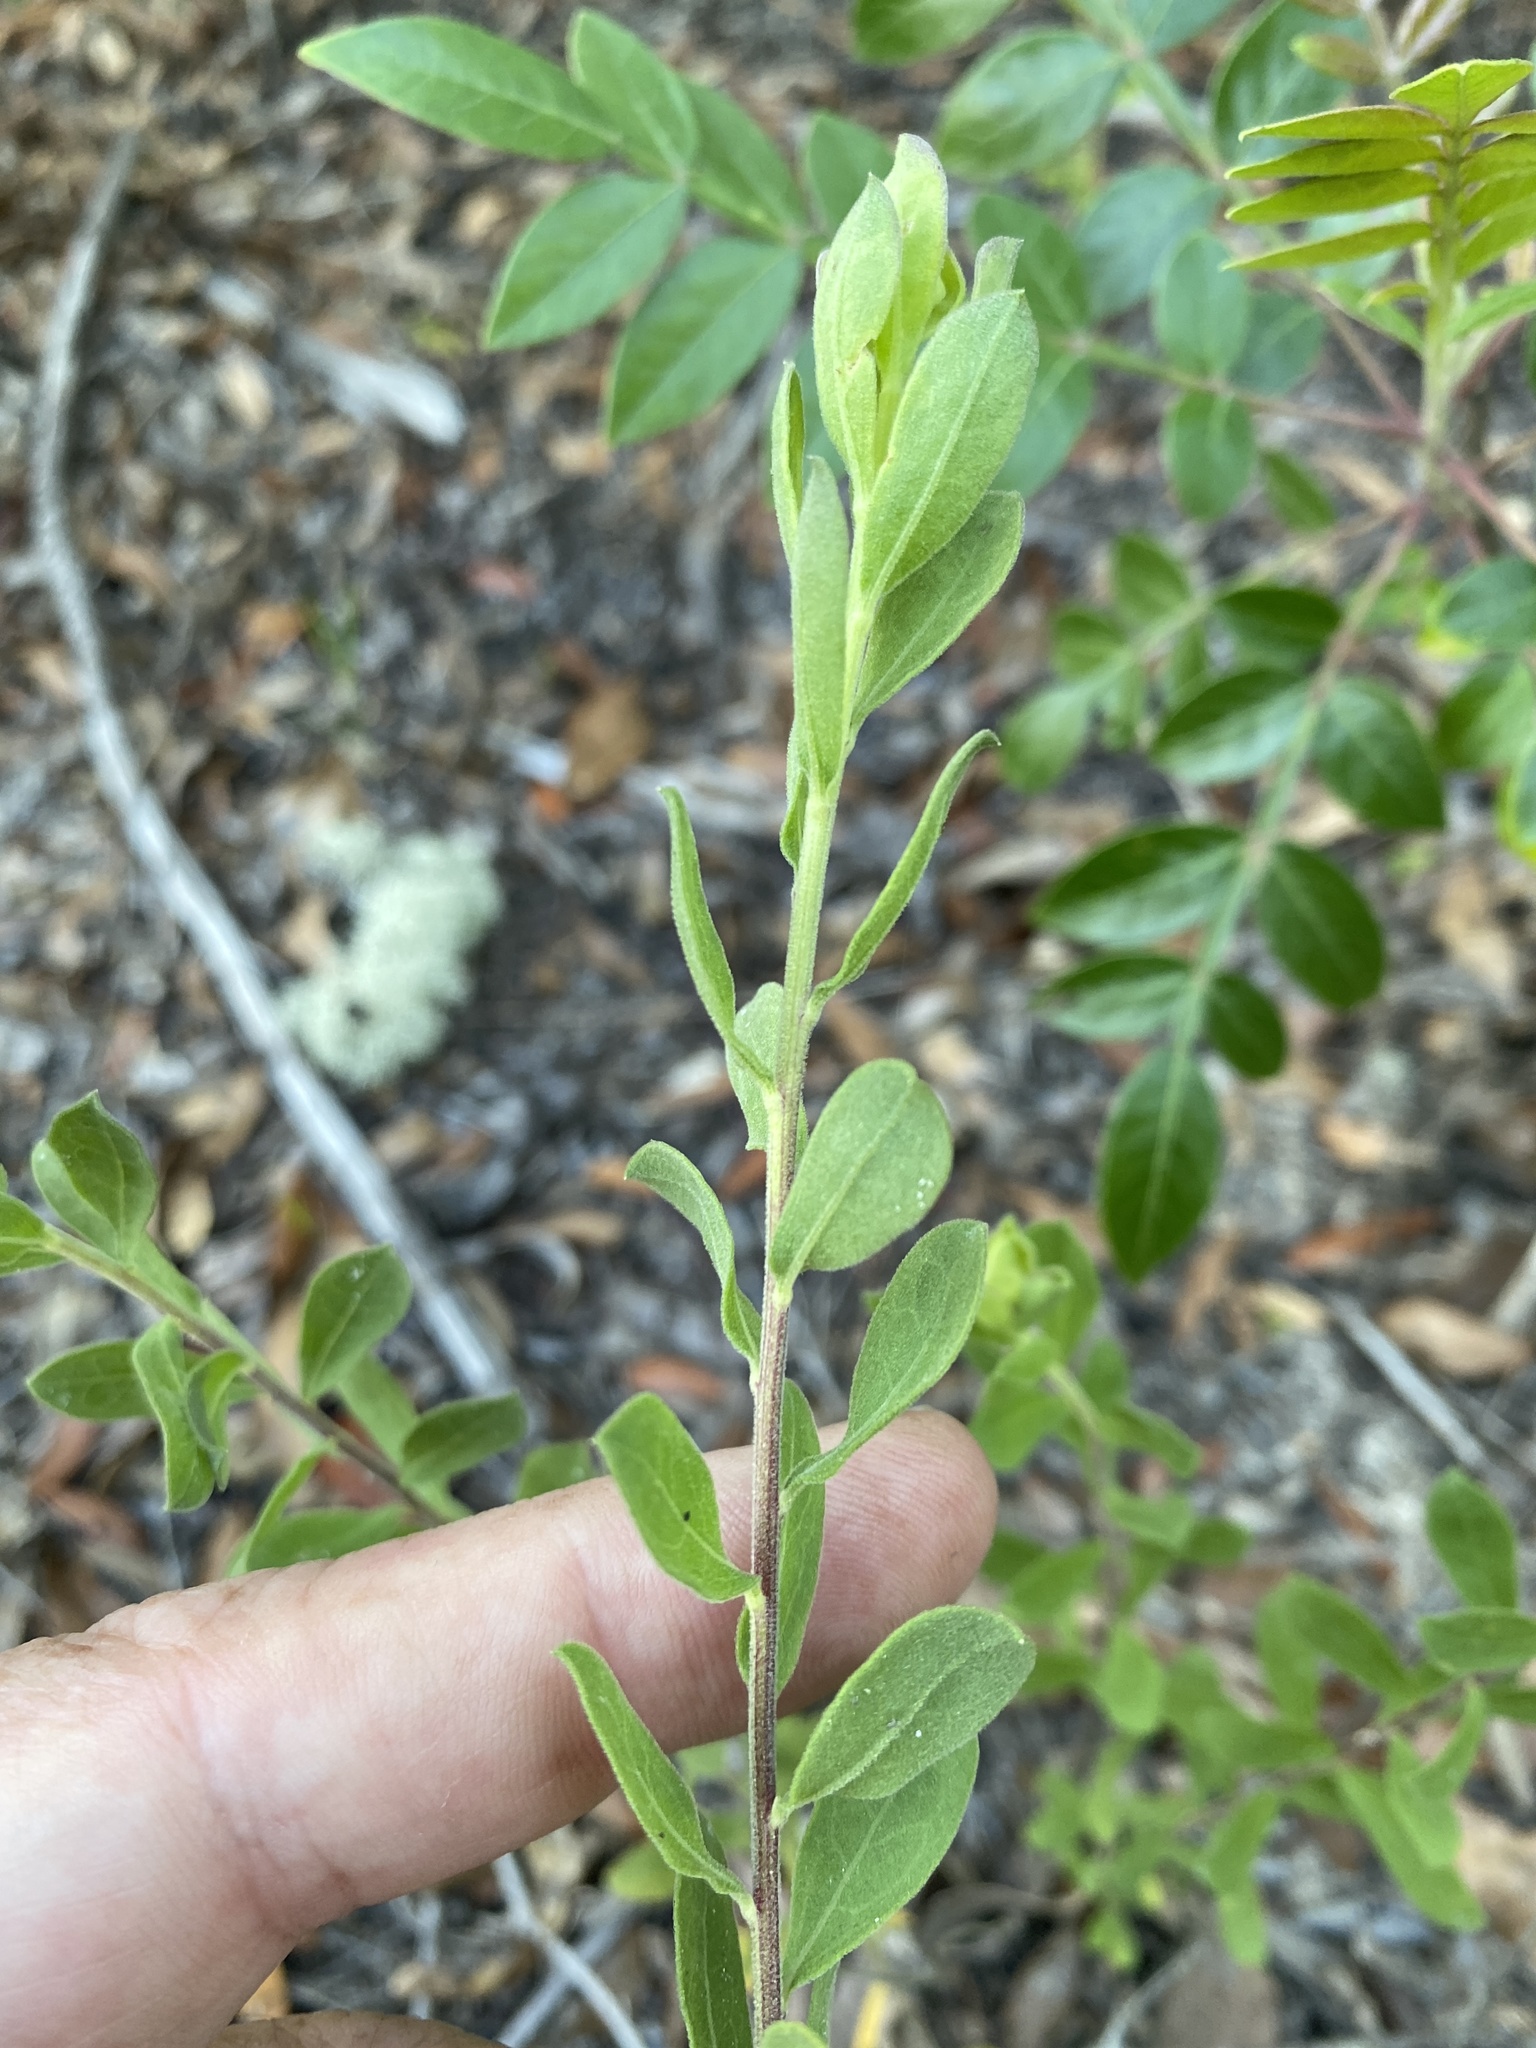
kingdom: Plantae
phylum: Tracheophyta
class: Magnoliopsida
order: Asterales
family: Asteraceae
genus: Sericocarpus
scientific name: Sericocarpus tortifolius
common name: Dixie aster
